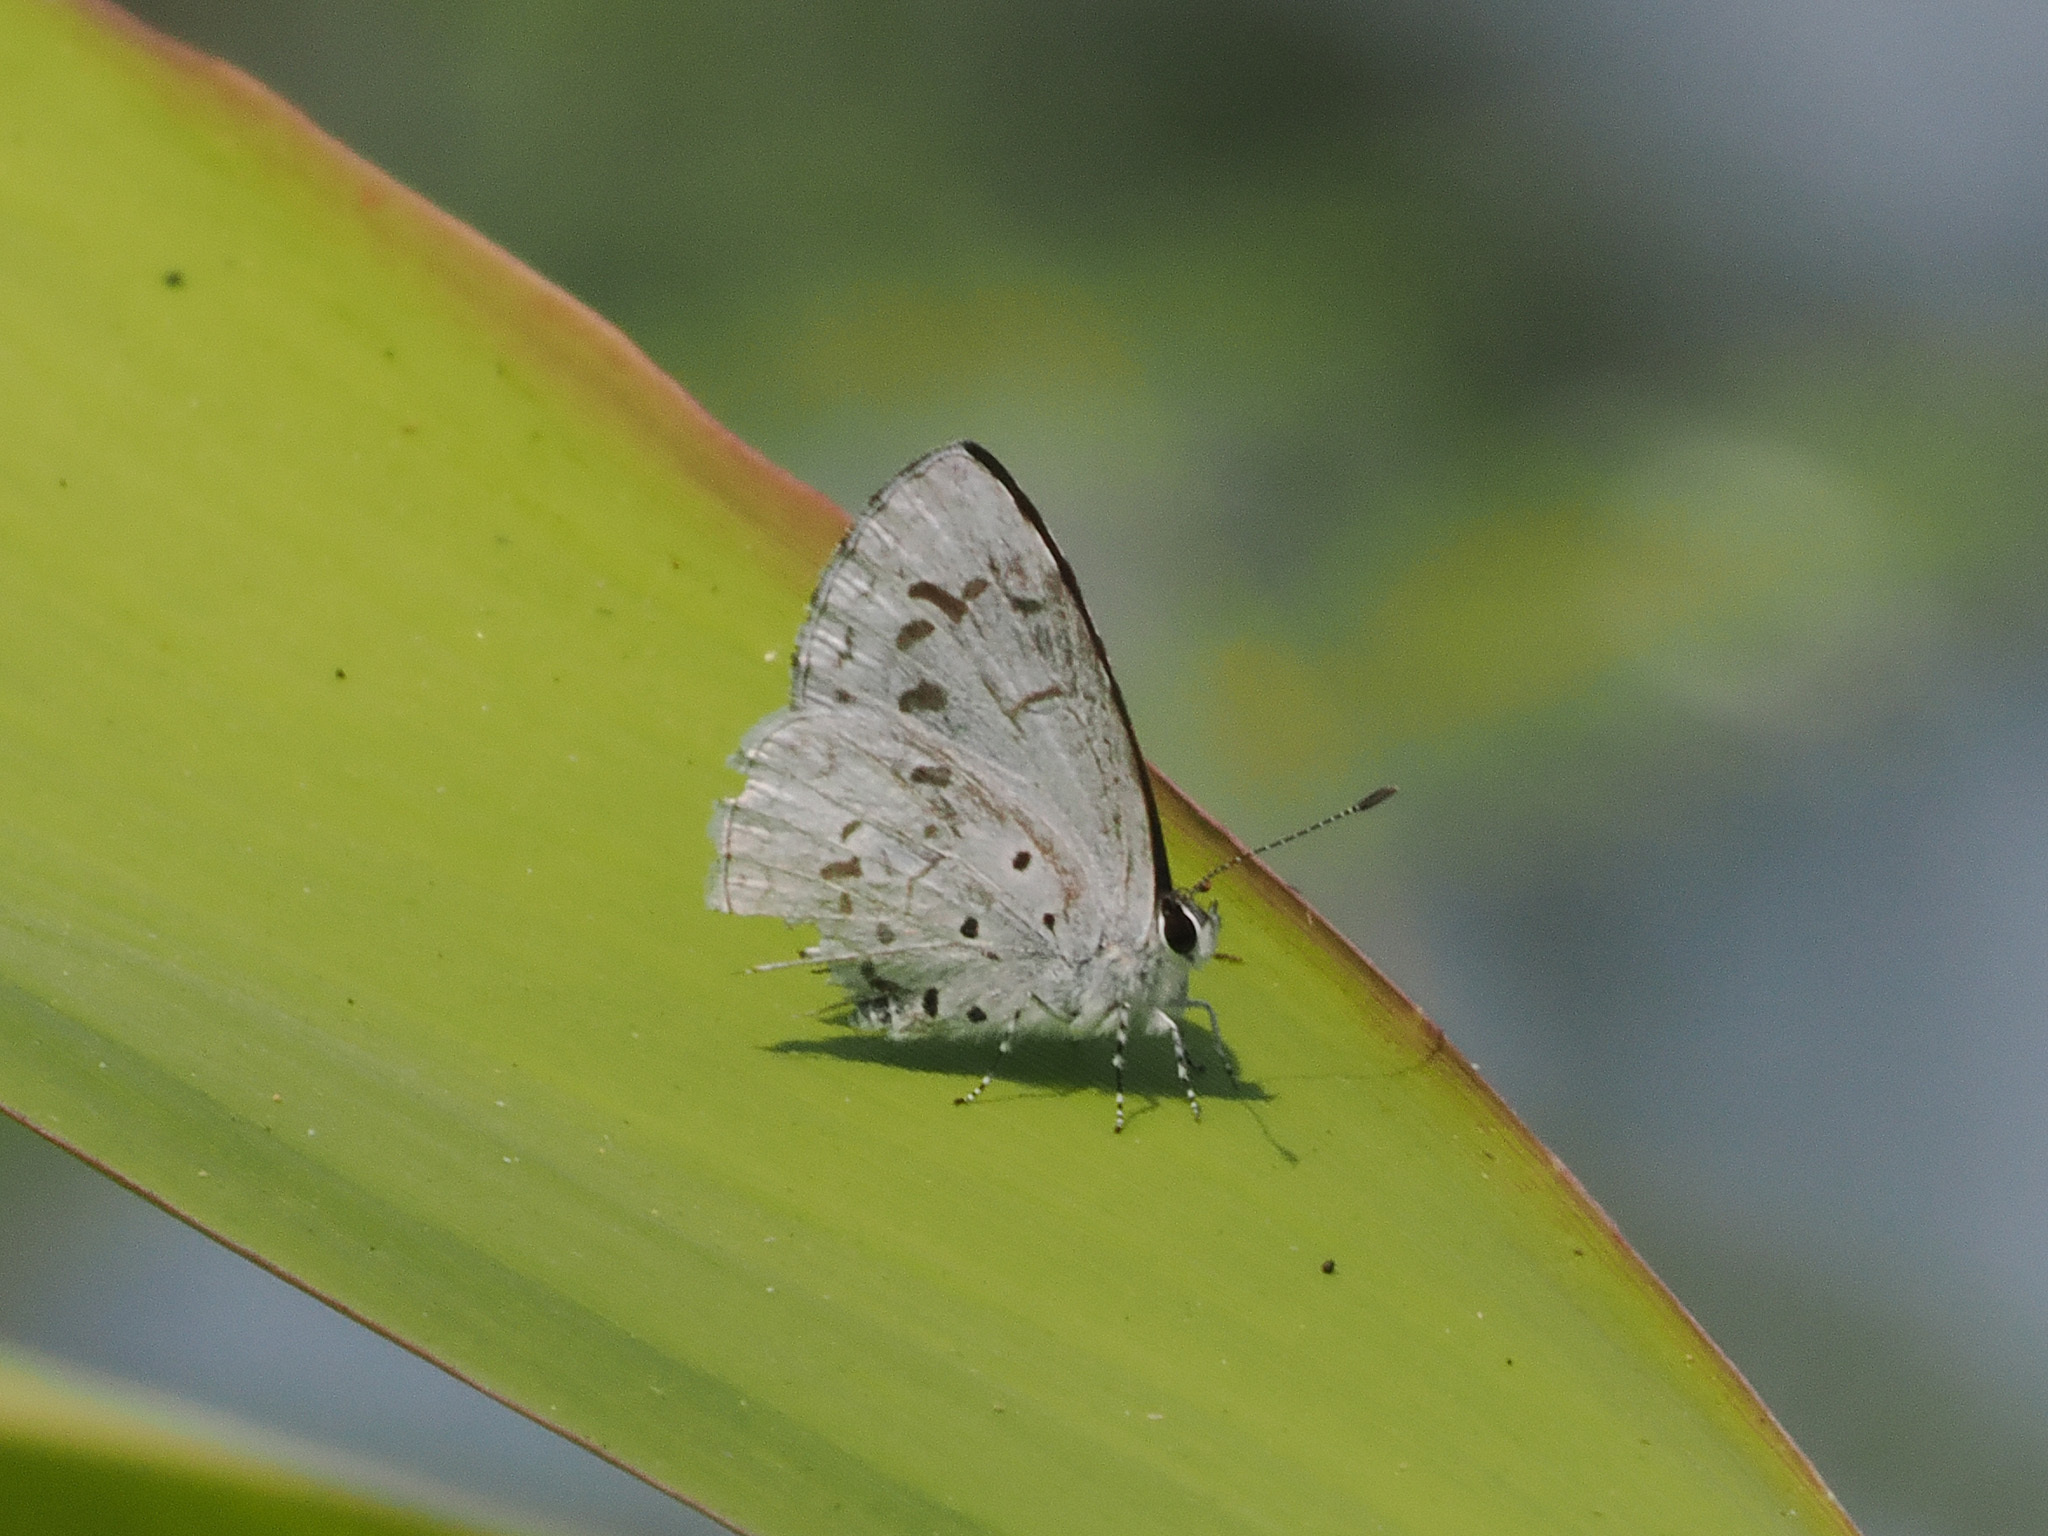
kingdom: Animalia
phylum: Arthropoda
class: Insecta
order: Lepidoptera
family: Lycaenidae
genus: Acytolepis
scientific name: Acytolepis puspa
